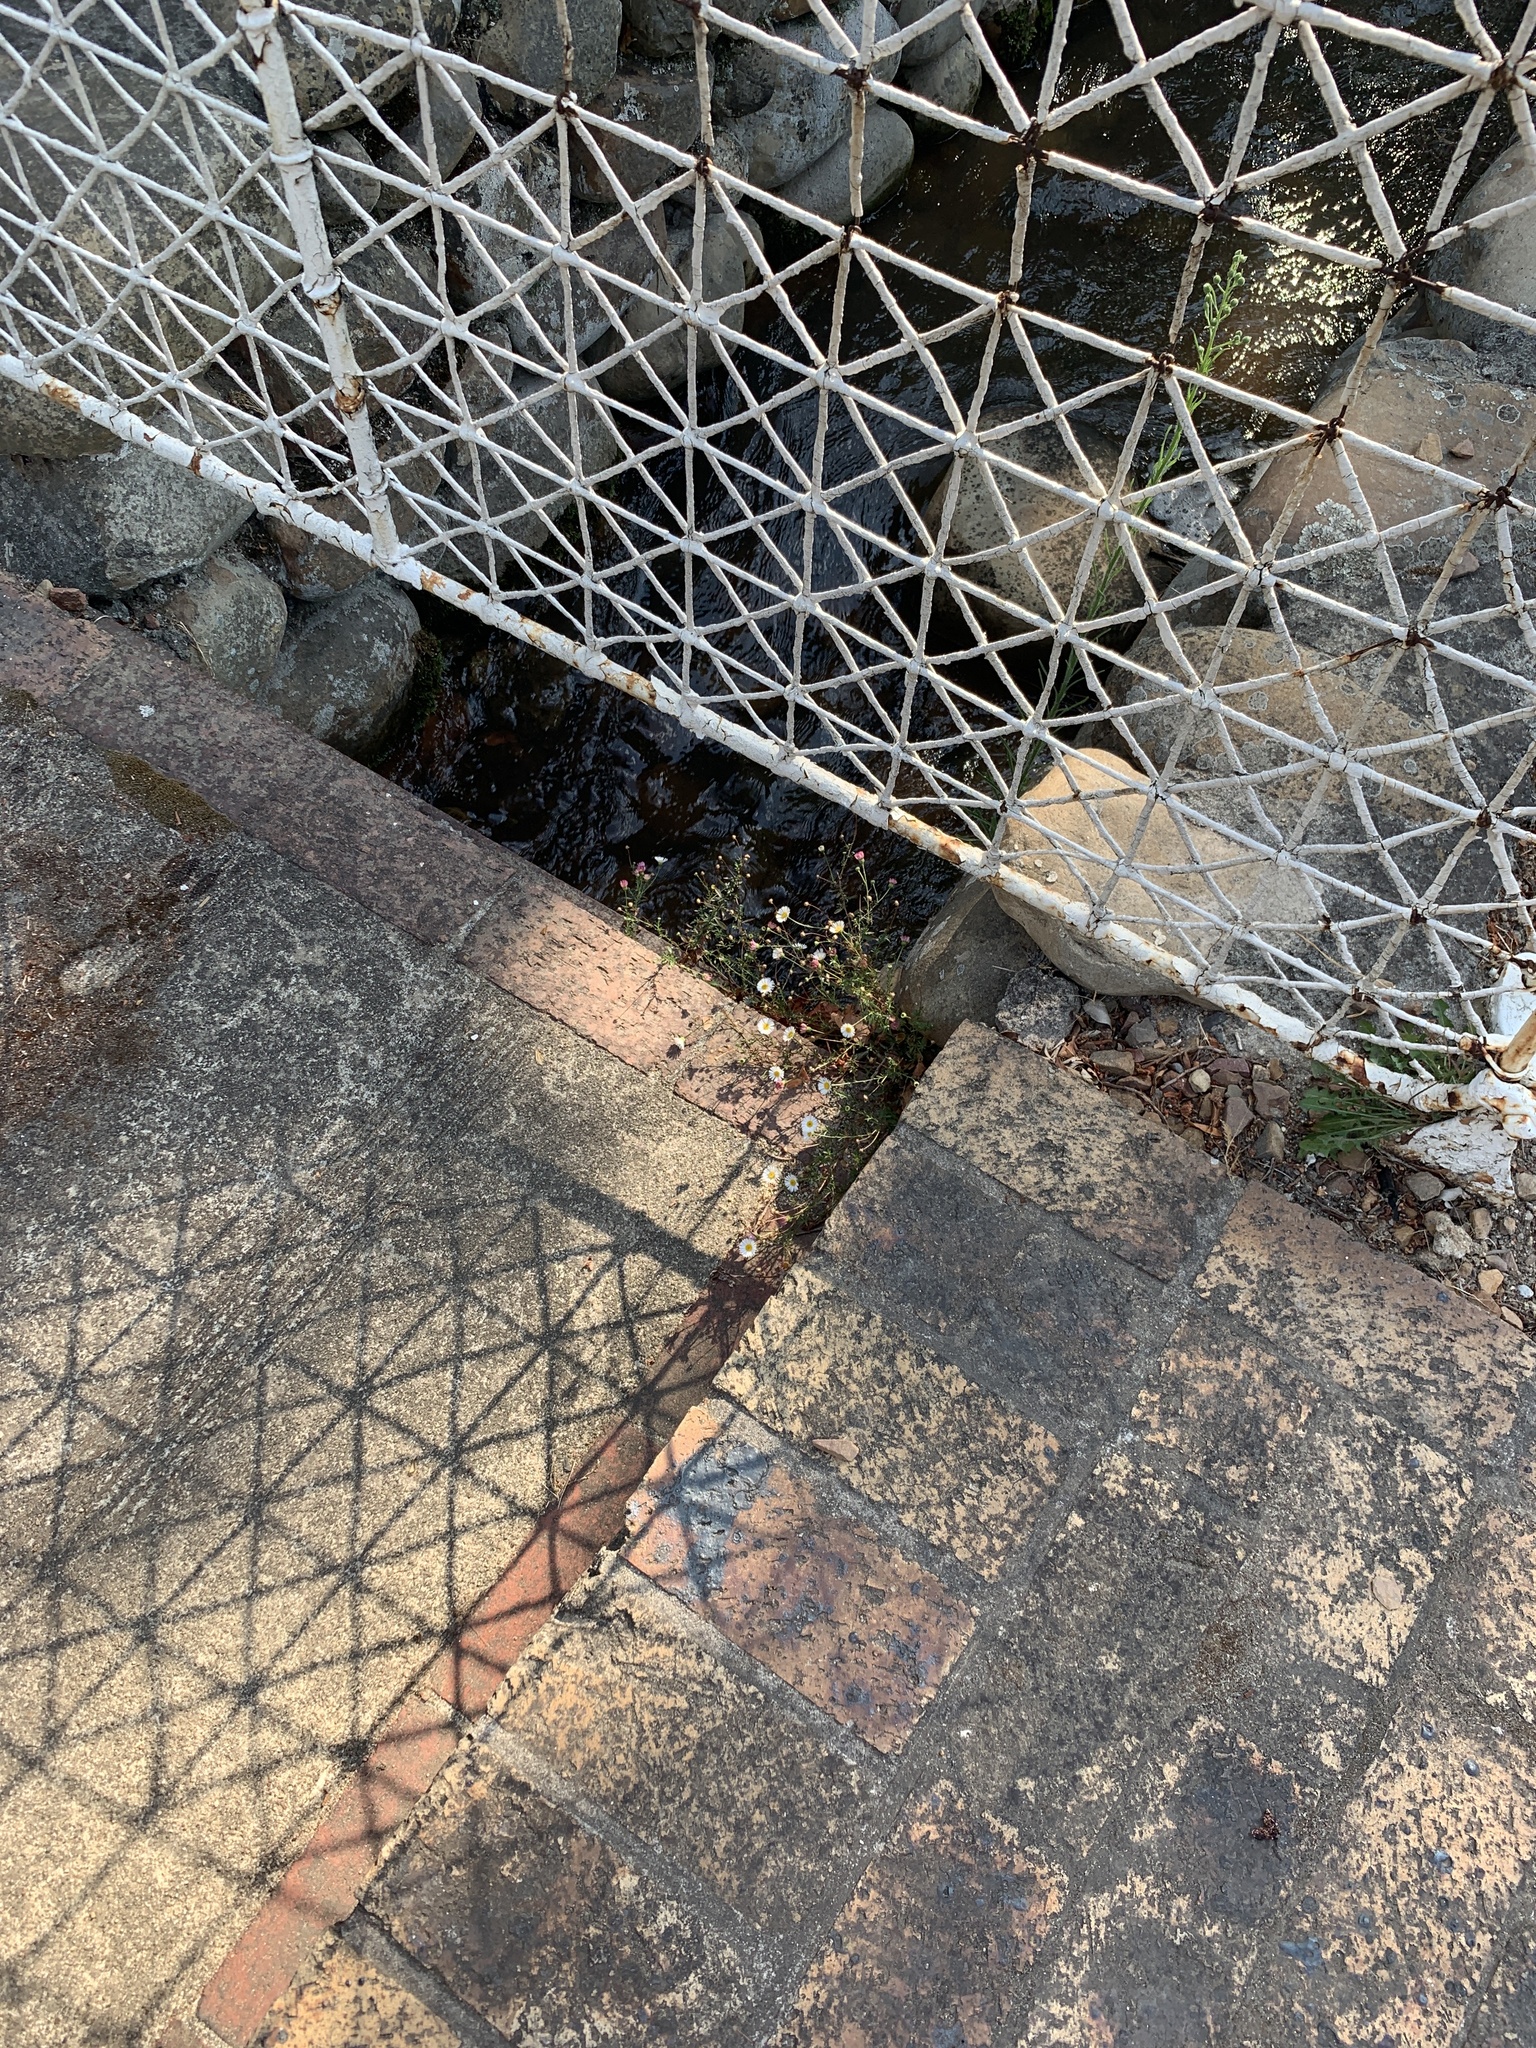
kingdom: Plantae
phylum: Tracheophyta
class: Magnoliopsida
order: Asterales
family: Asteraceae
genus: Erigeron
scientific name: Erigeron karvinskianus
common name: Mexican fleabane
